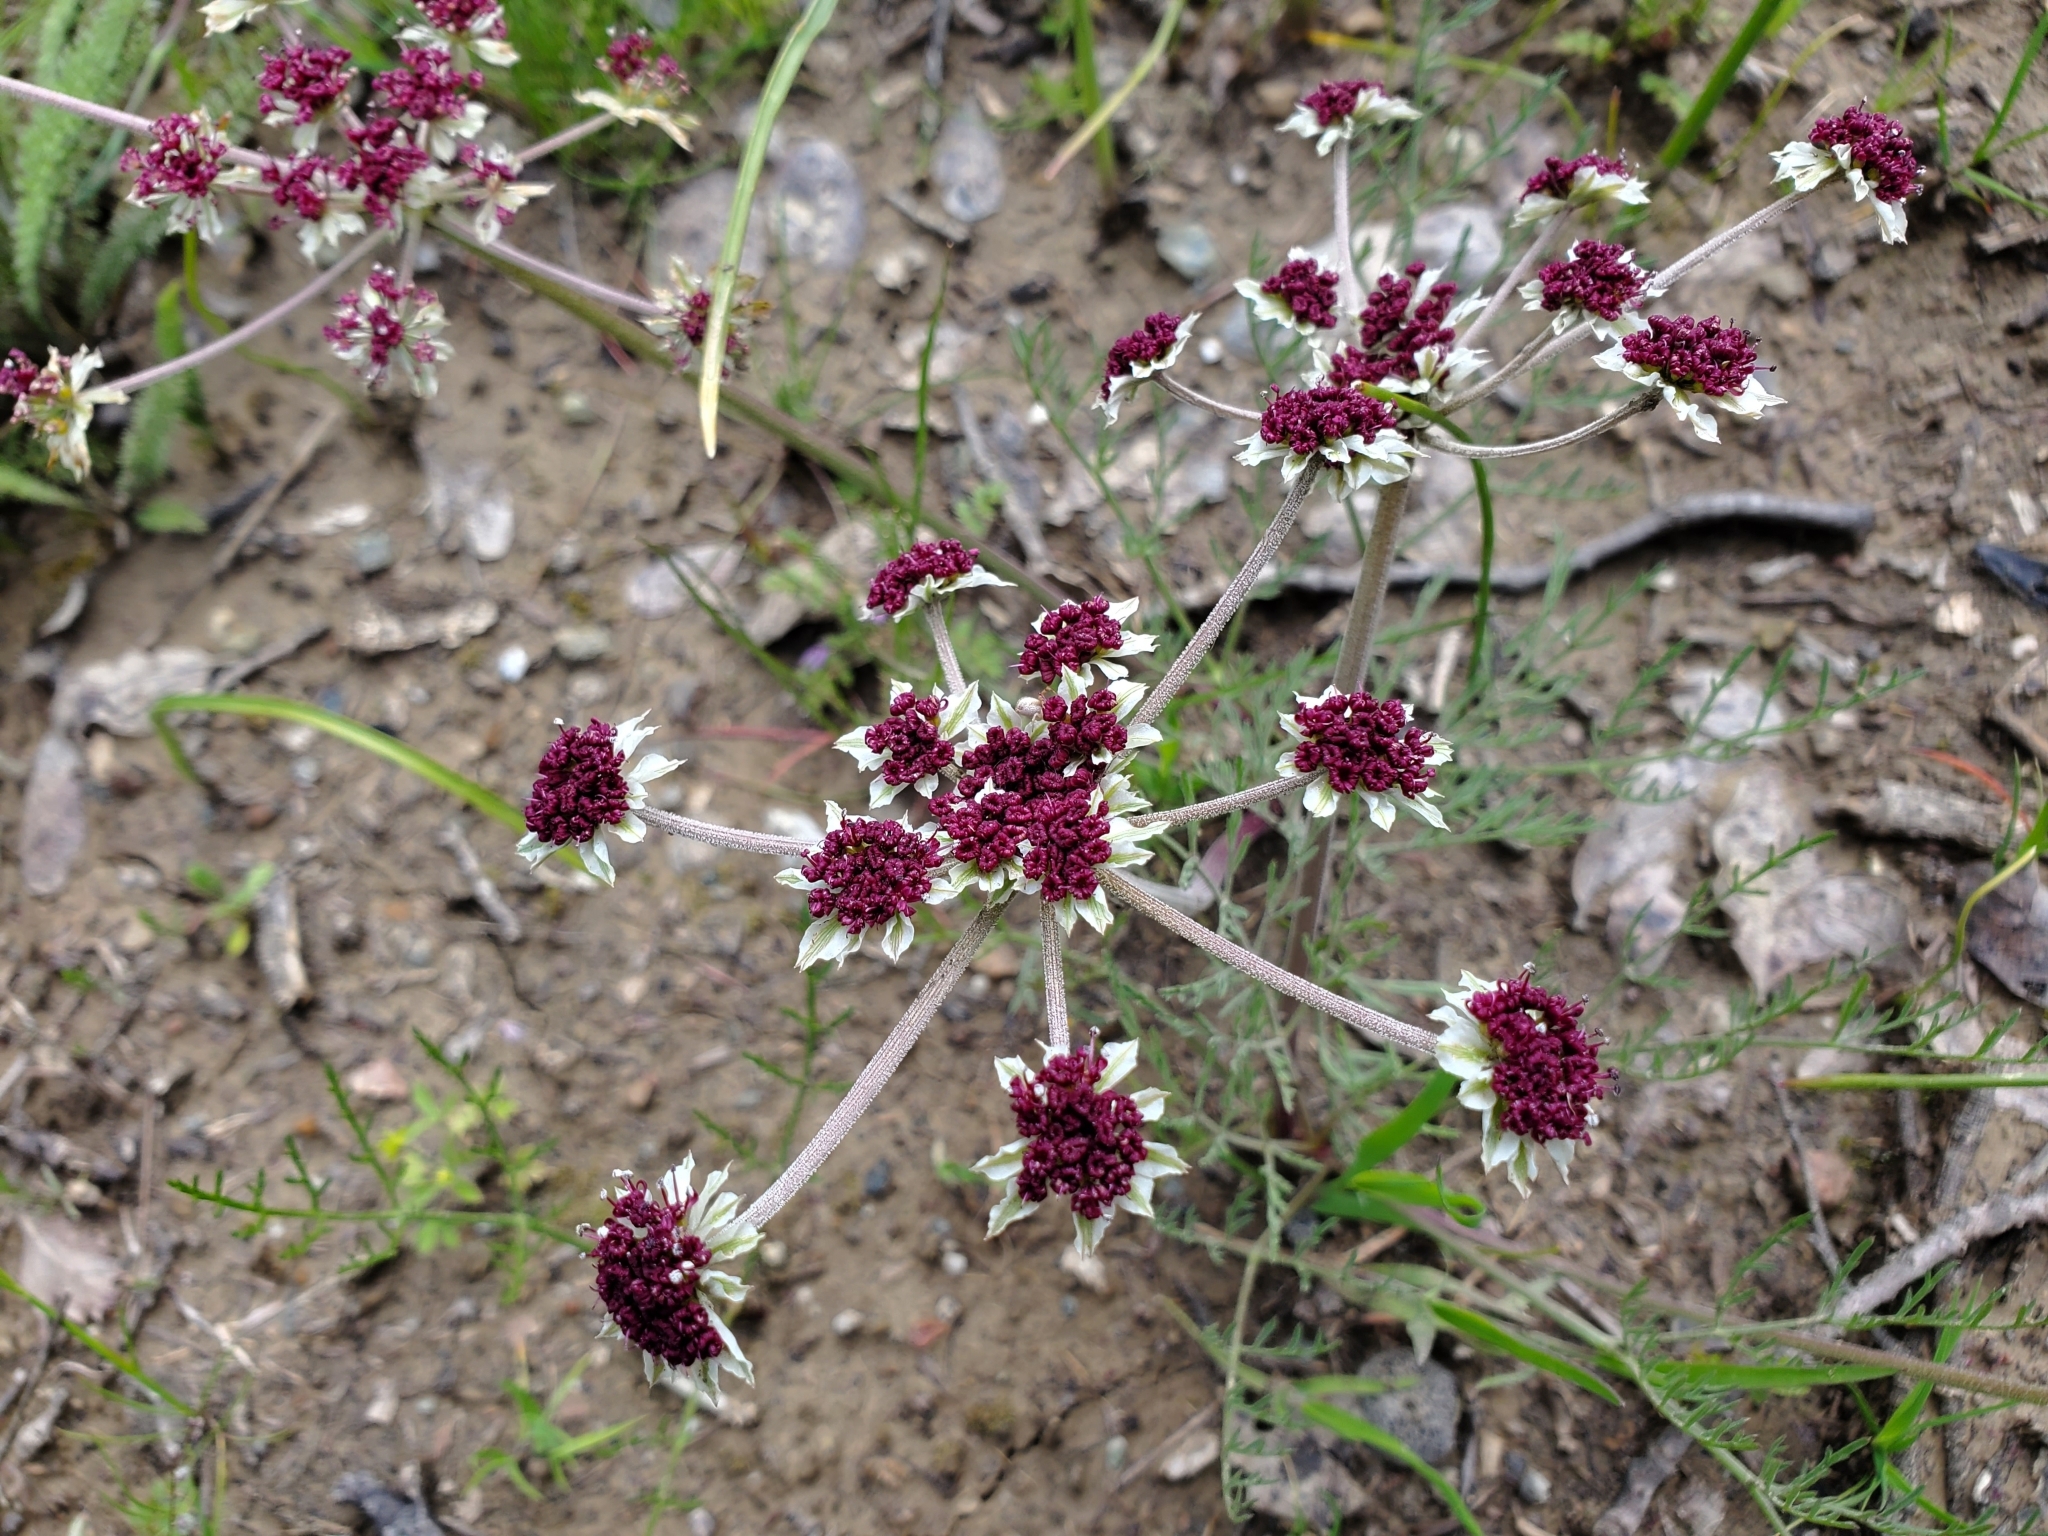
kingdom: Plantae
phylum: Tracheophyta
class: Magnoliopsida
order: Apiales
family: Apiaceae
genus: Lomatium
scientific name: Lomatium hooveri
